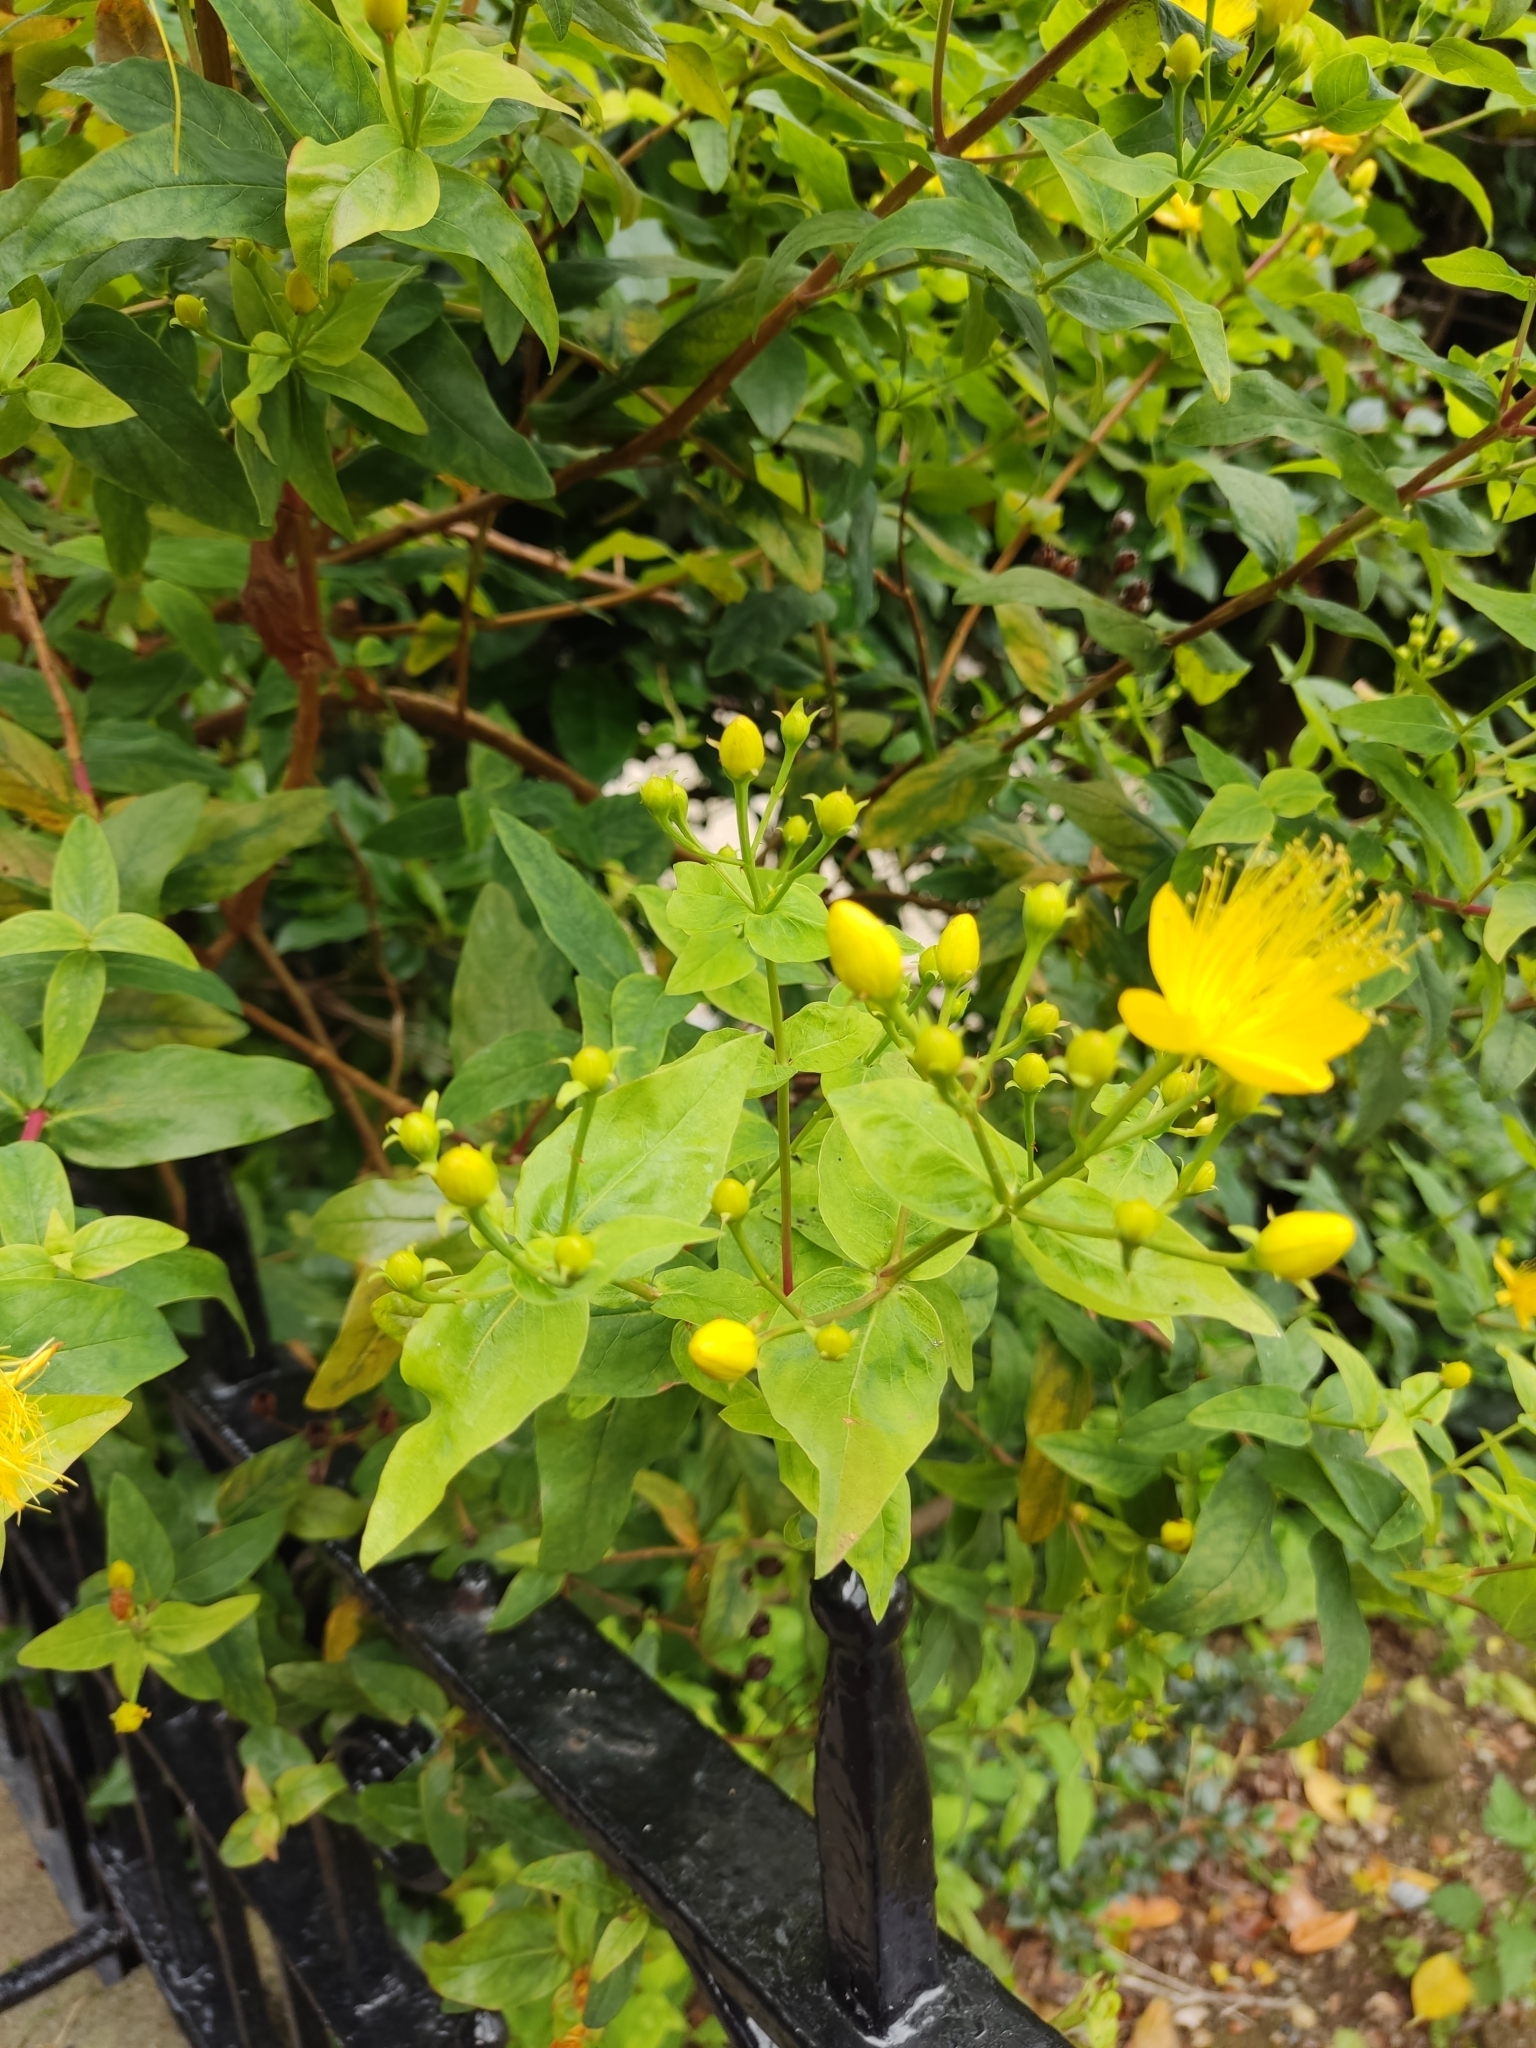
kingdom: Plantae
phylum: Tracheophyta
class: Magnoliopsida
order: Malpighiales
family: Hypericaceae
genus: Hypericum
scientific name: Hypericum hircinum
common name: Stinking tutsan
